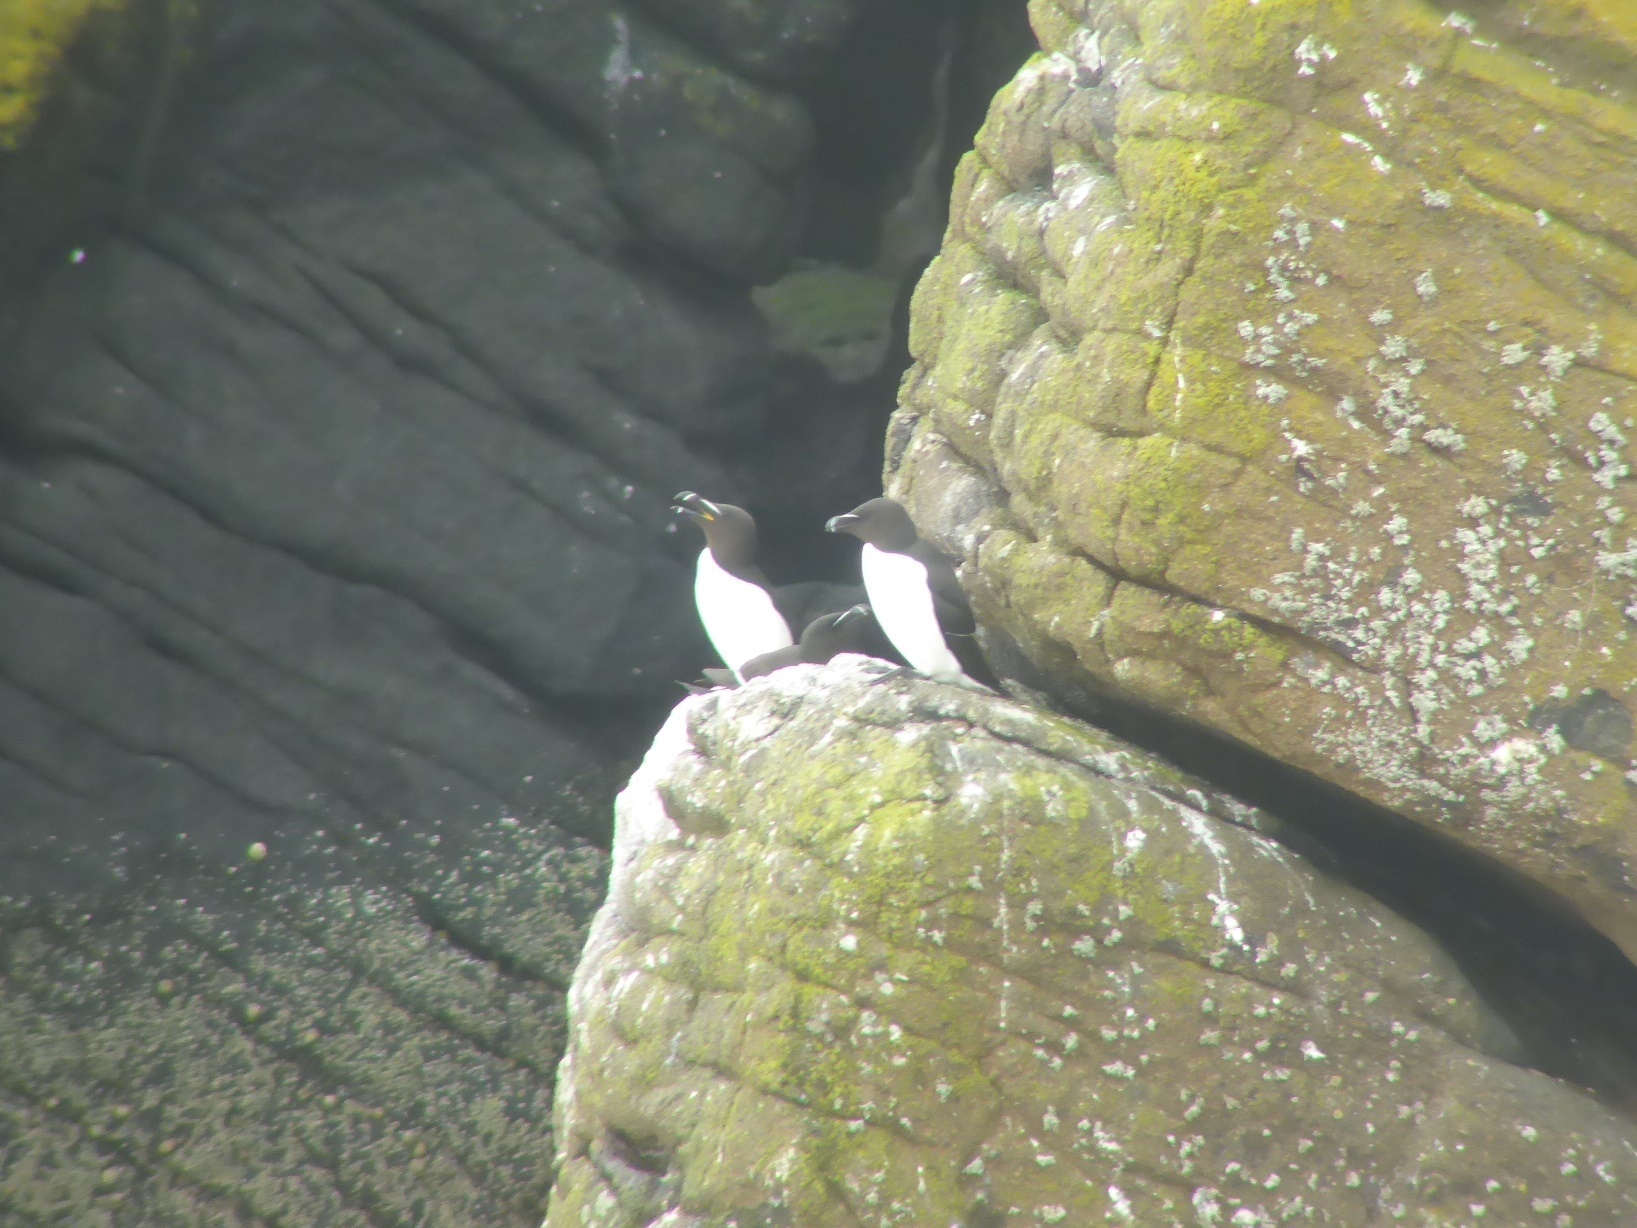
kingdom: Animalia
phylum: Chordata
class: Aves
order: Charadriiformes
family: Alcidae
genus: Alca
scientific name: Alca torda
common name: Razorbill
